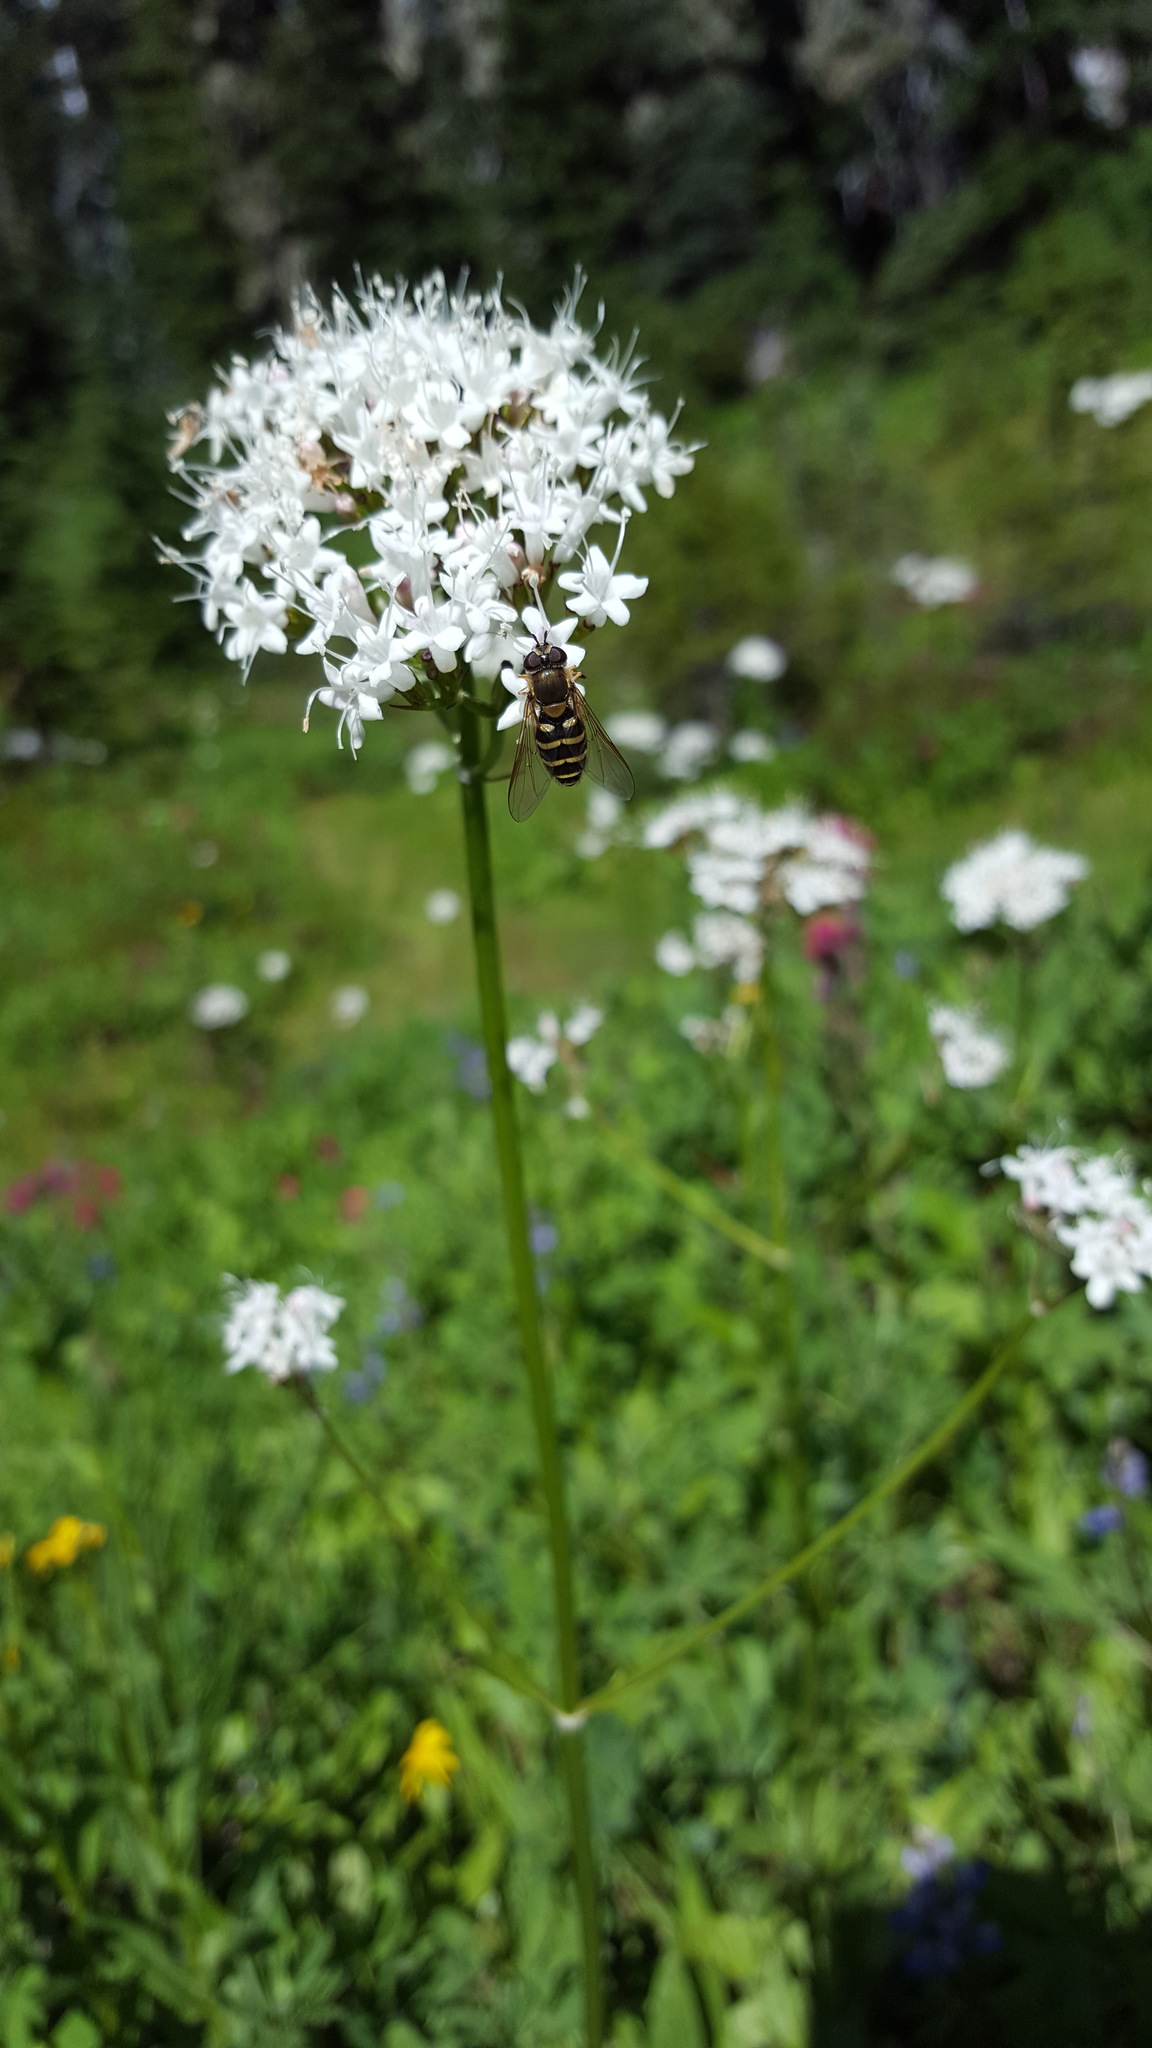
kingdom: Plantae
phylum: Tracheophyta
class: Magnoliopsida
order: Dipsacales
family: Caprifoliaceae
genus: Valeriana
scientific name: Valeriana sitchensis
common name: Pacific valerian
